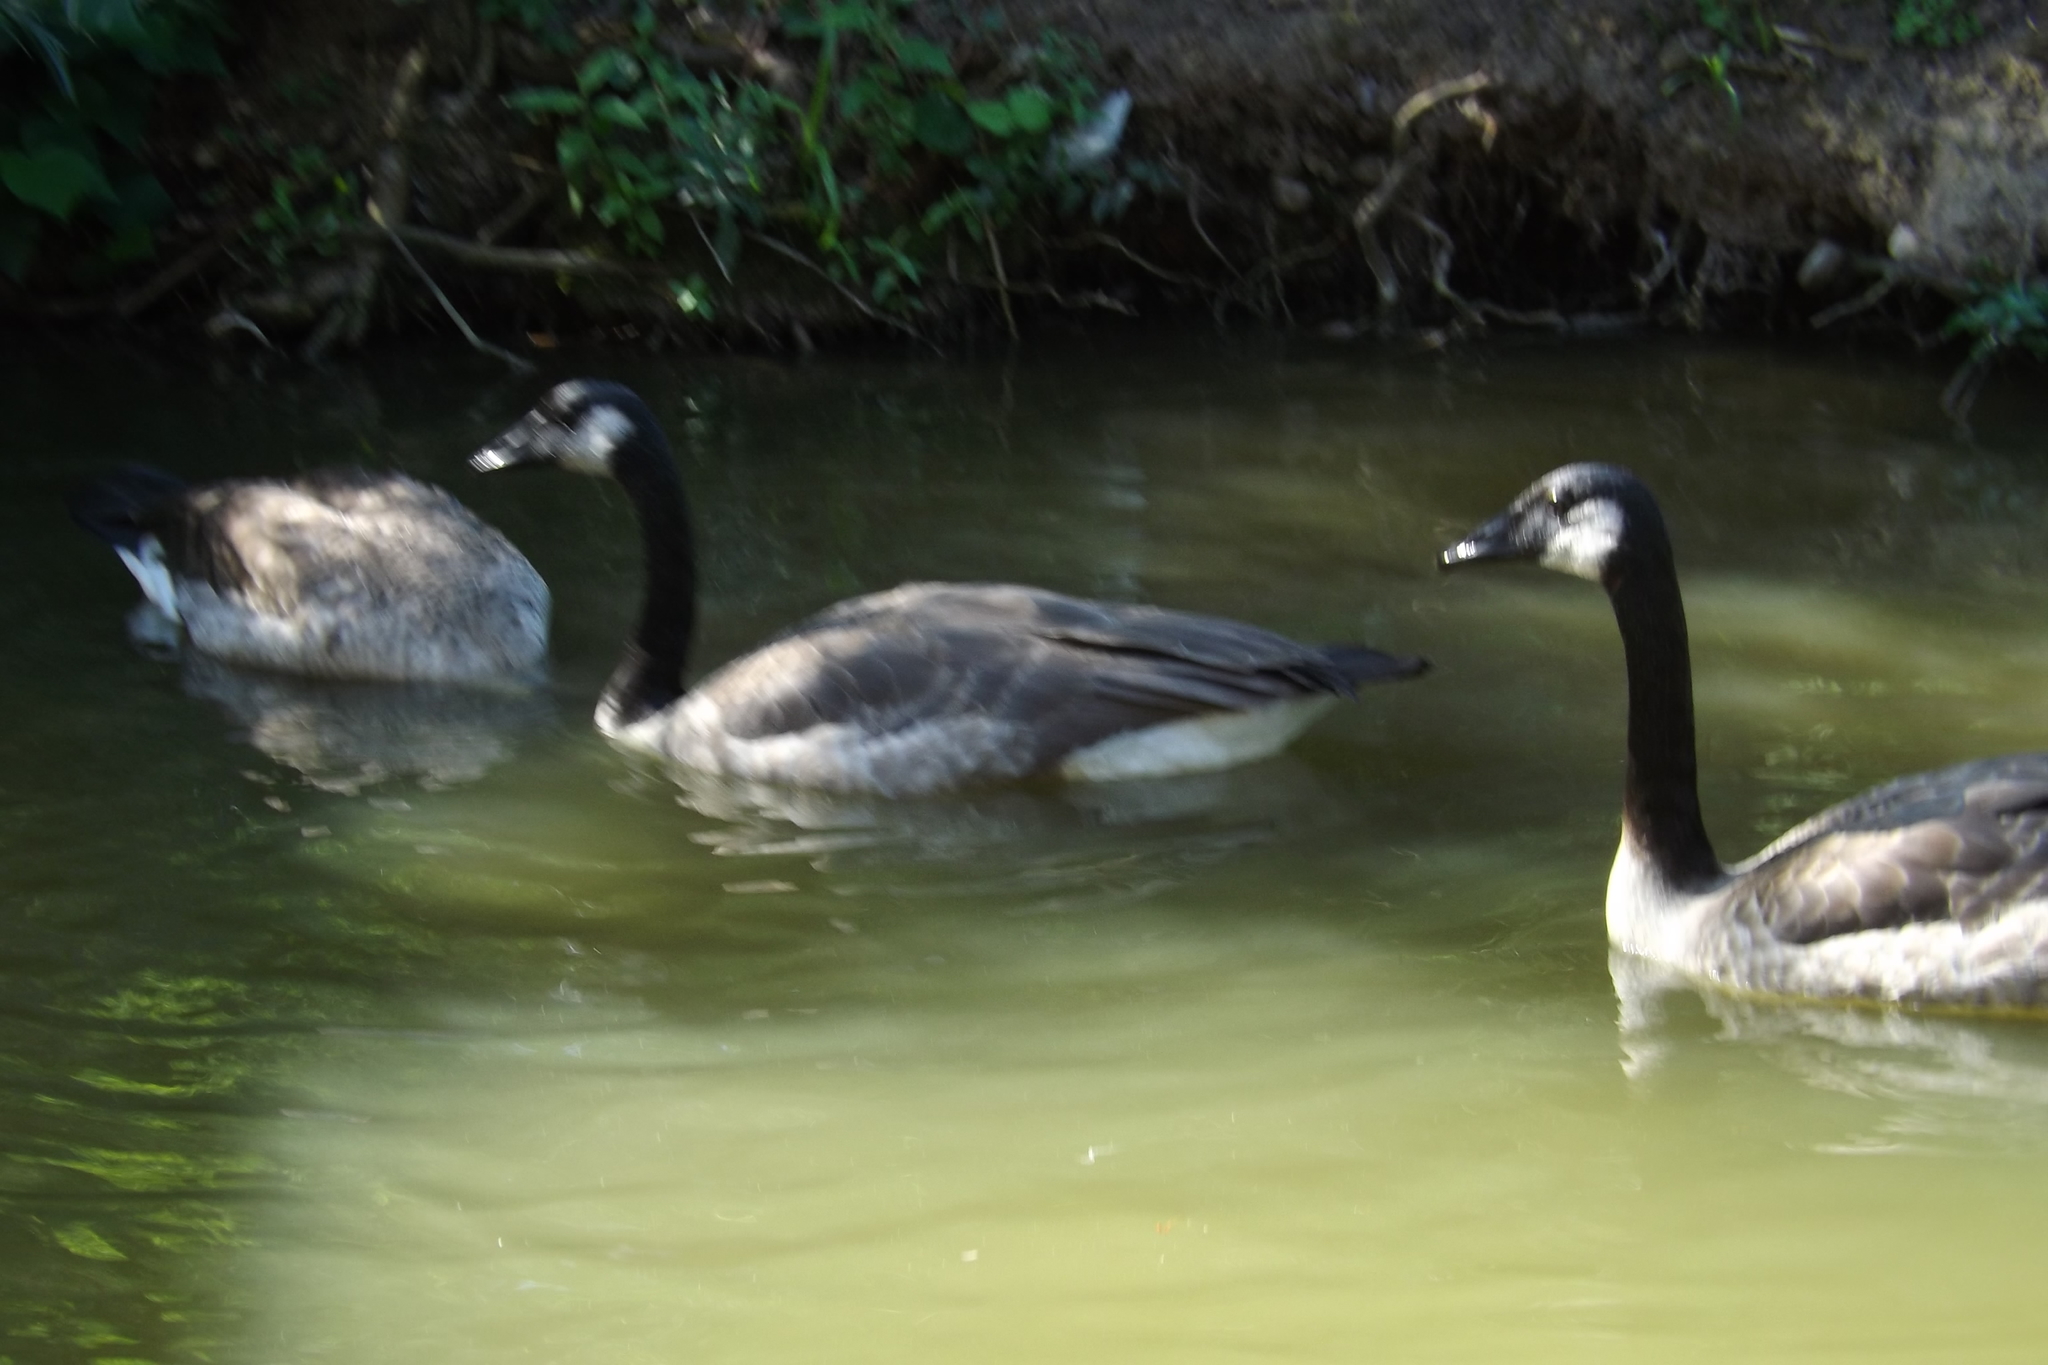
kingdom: Animalia
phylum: Chordata
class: Aves
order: Anseriformes
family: Anatidae
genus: Branta
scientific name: Branta canadensis
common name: Canada goose
